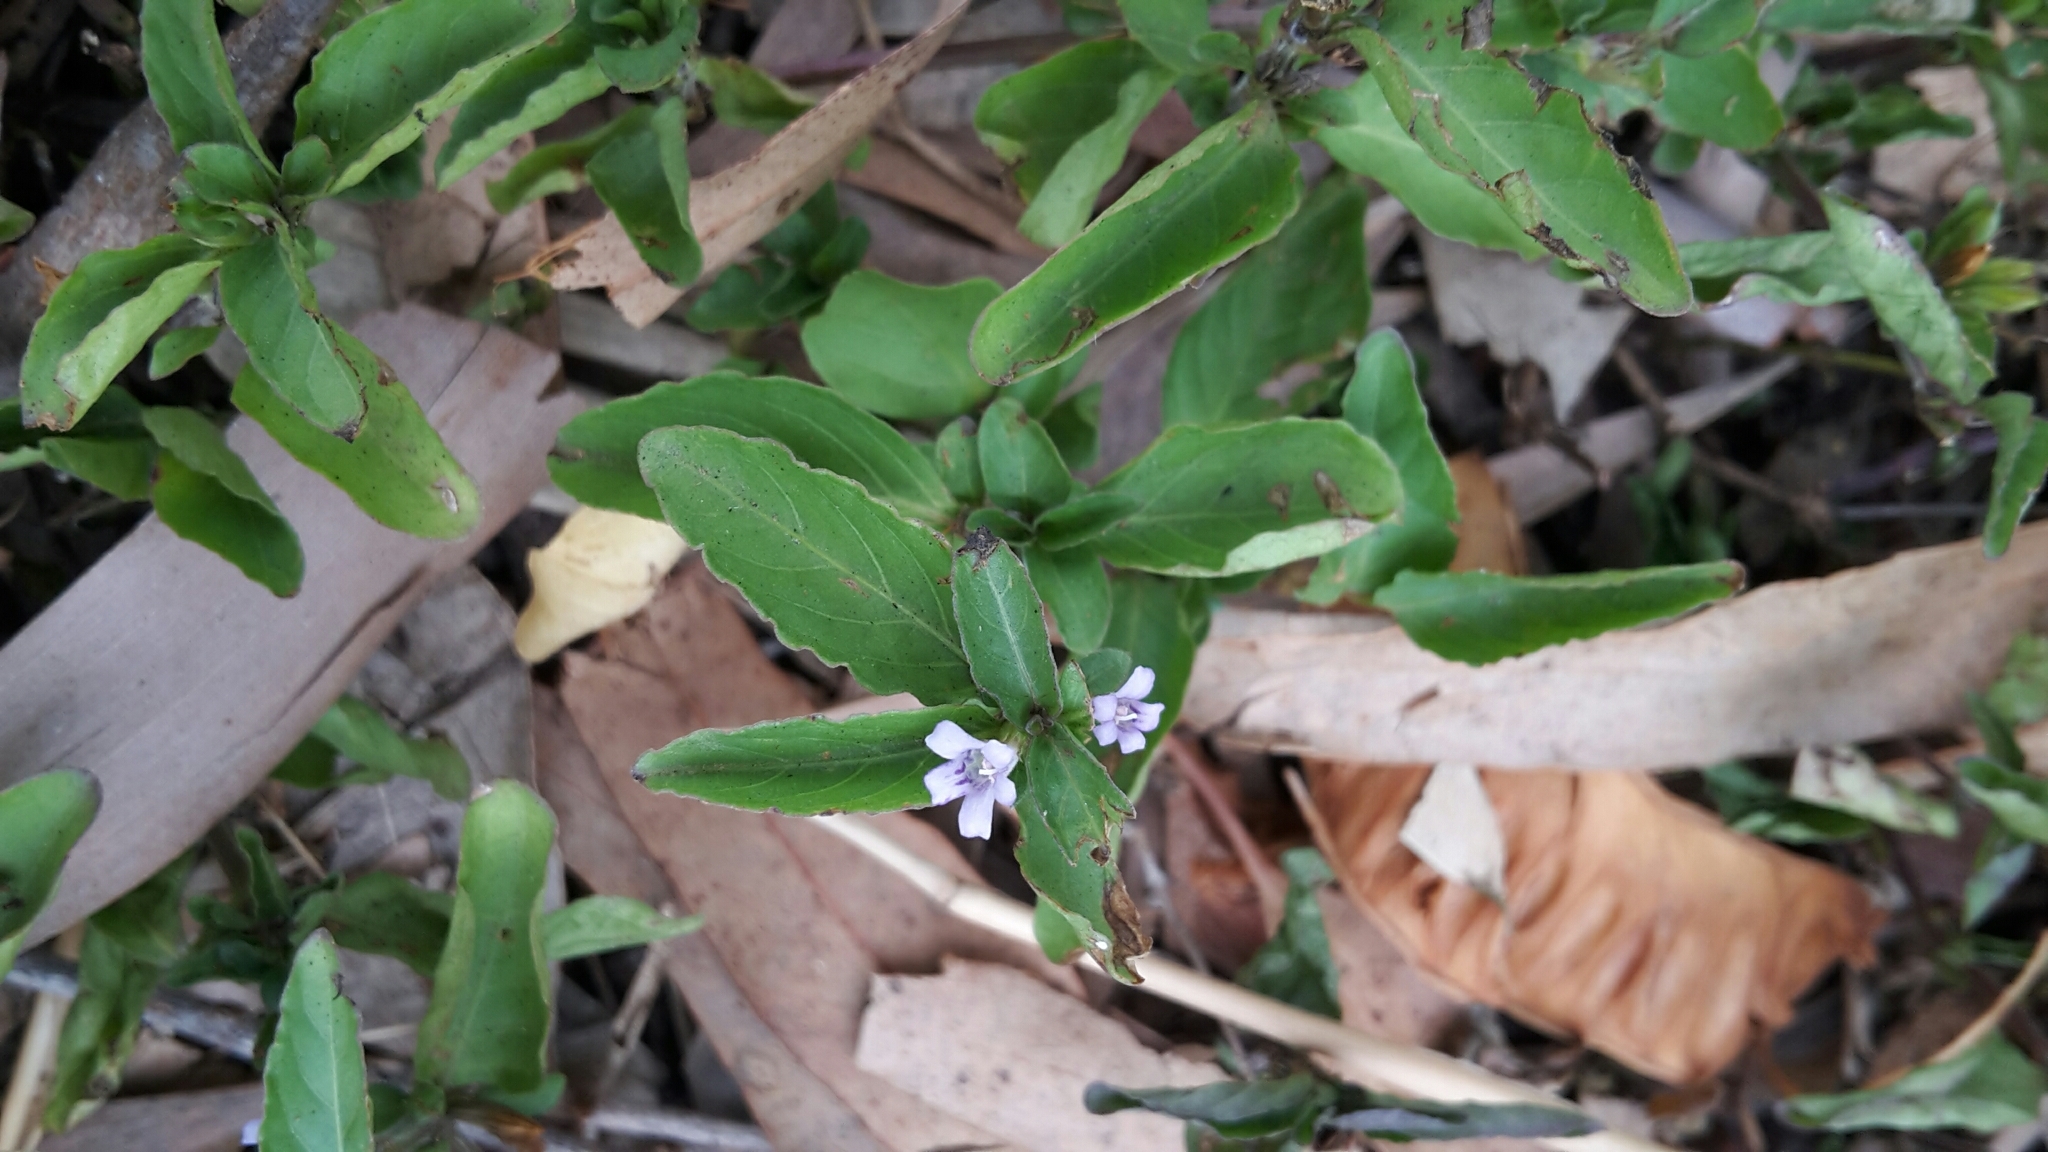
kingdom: Plantae
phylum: Tracheophyta
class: Magnoliopsida
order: Lamiales
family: Acanthaceae
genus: Hygrophila
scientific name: Hygrophila erecta
